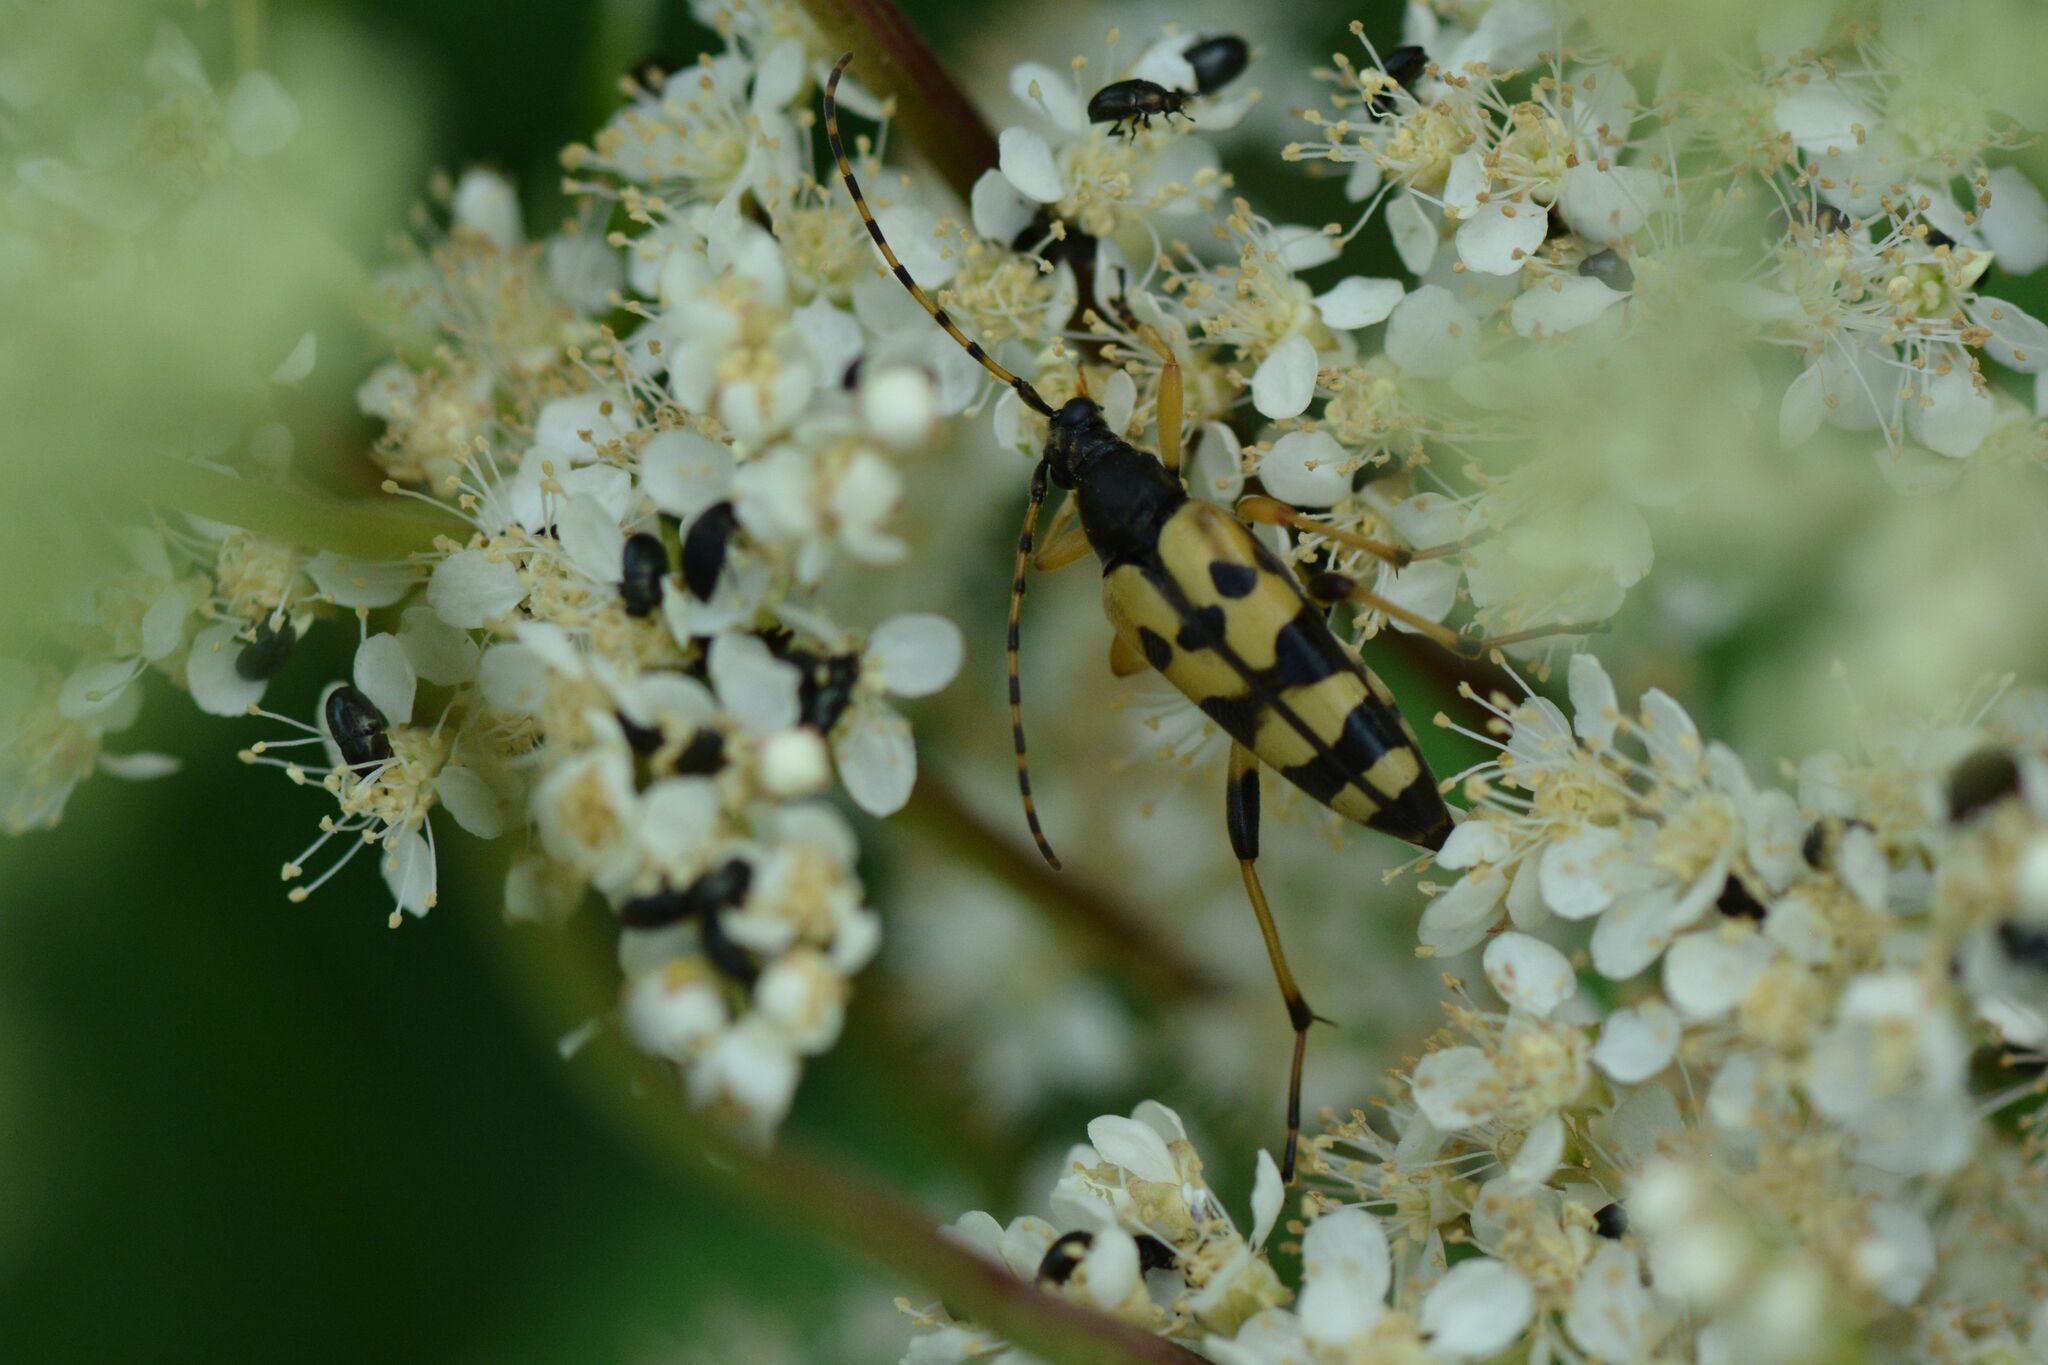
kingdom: Animalia
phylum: Arthropoda
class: Insecta
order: Coleoptera
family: Cerambycidae
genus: Rutpela
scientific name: Rutpela maculata
